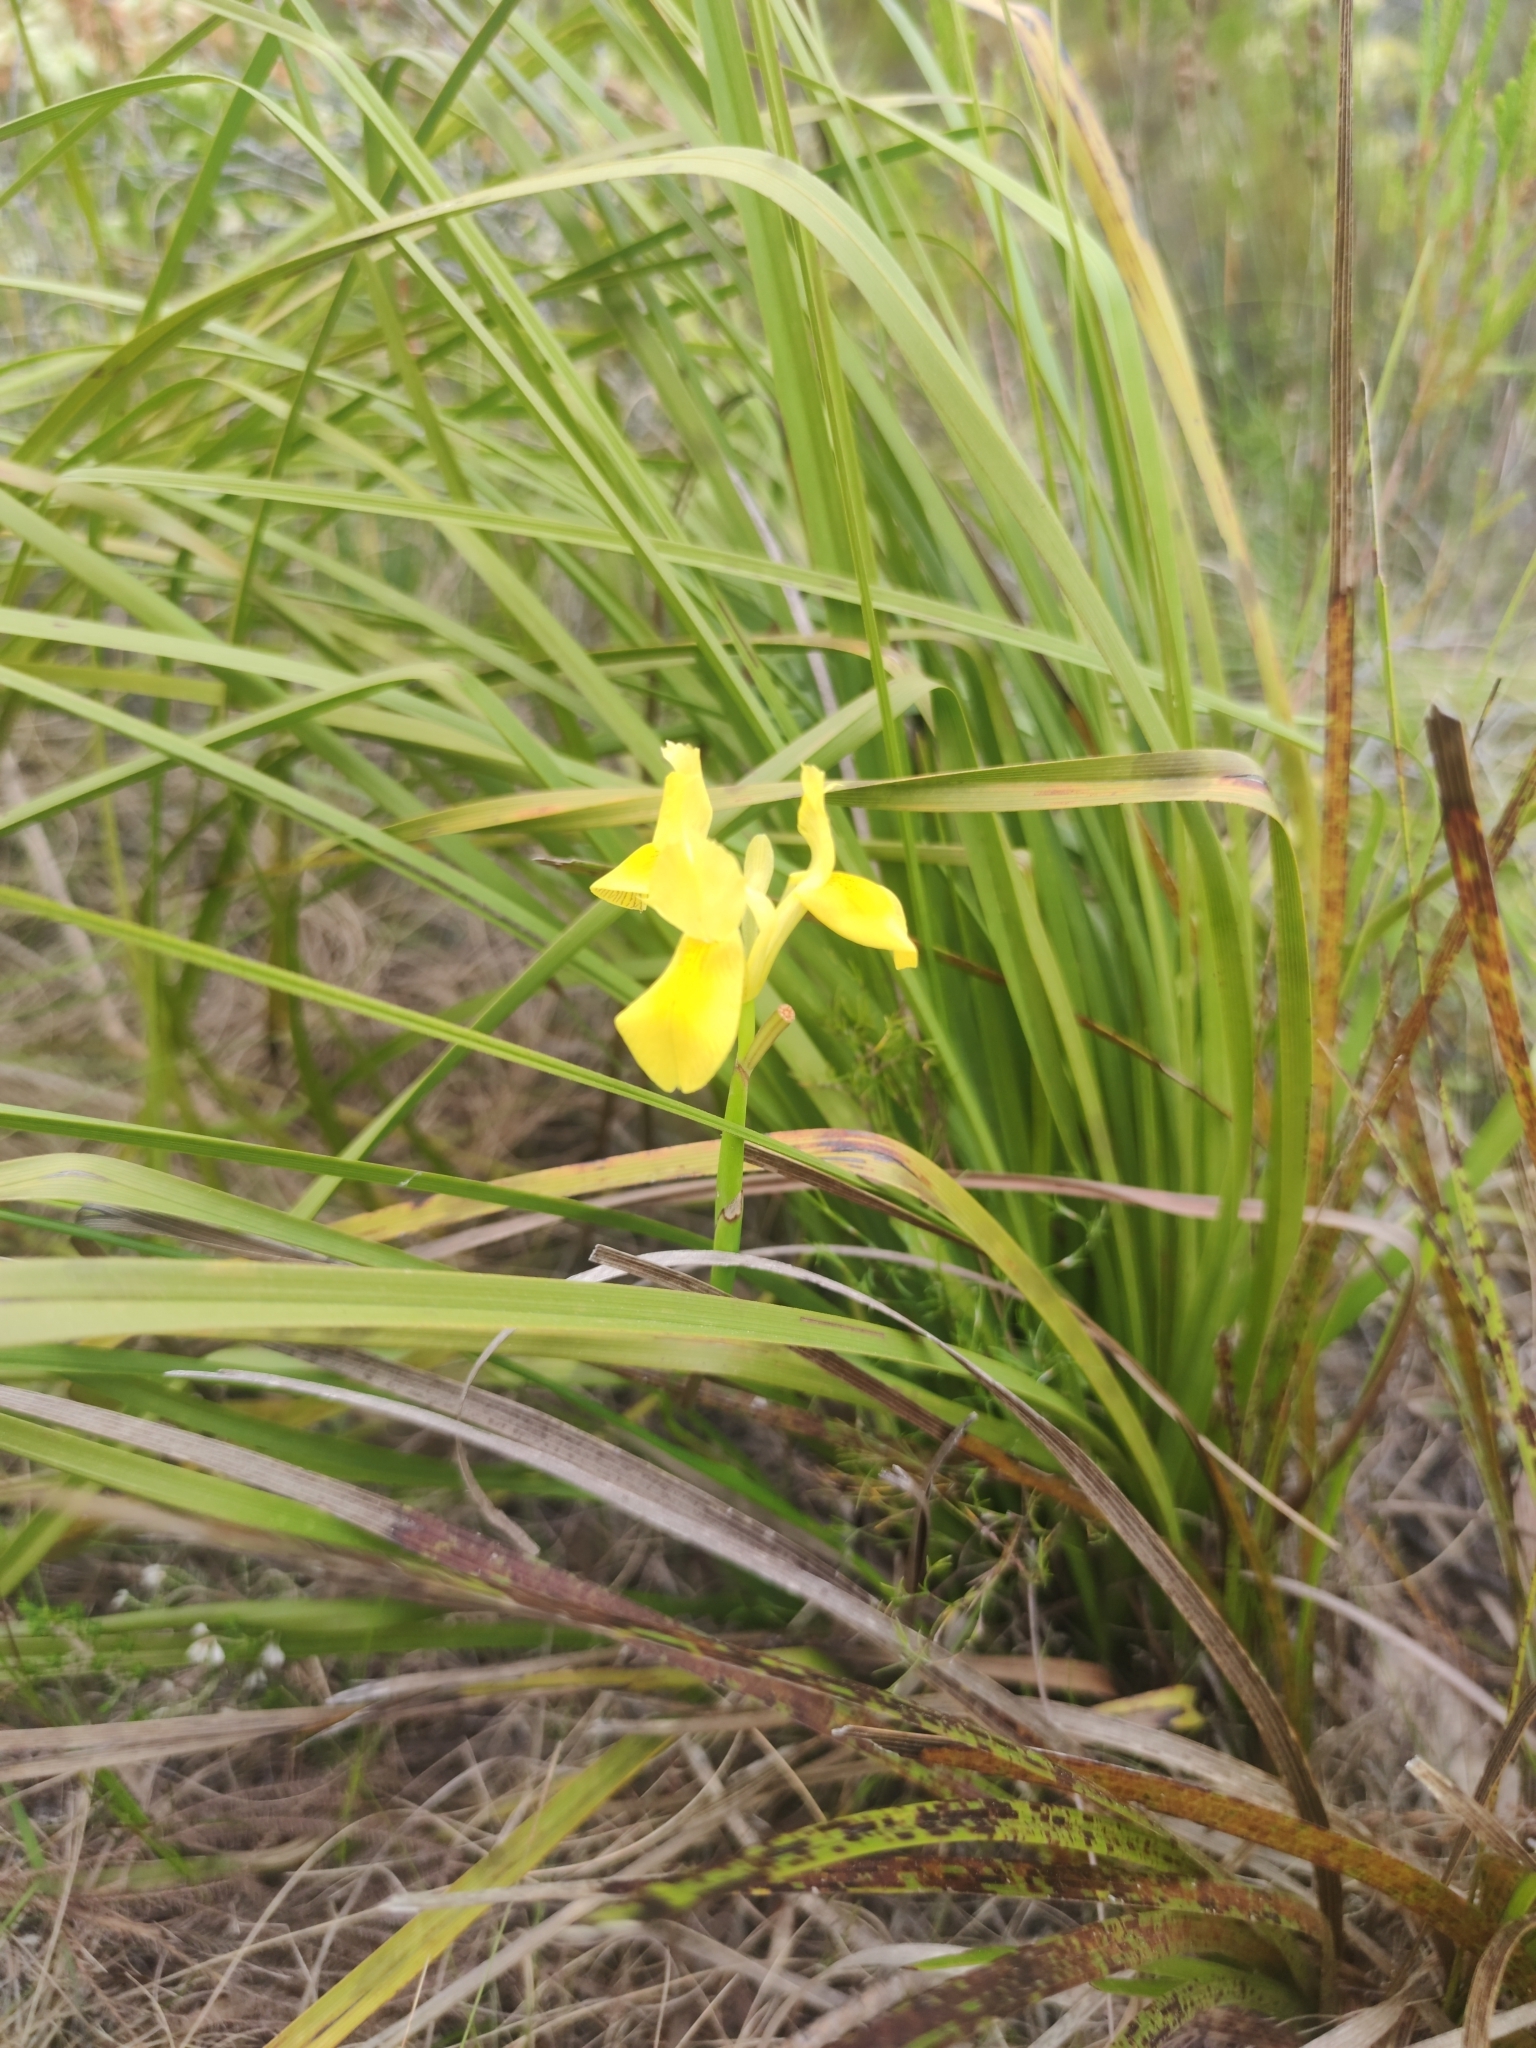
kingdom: Plantae
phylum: Tracheophyta
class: Liliopsida
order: Asparagales
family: Iridaceae
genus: Moraea
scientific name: Moraea neglecta
